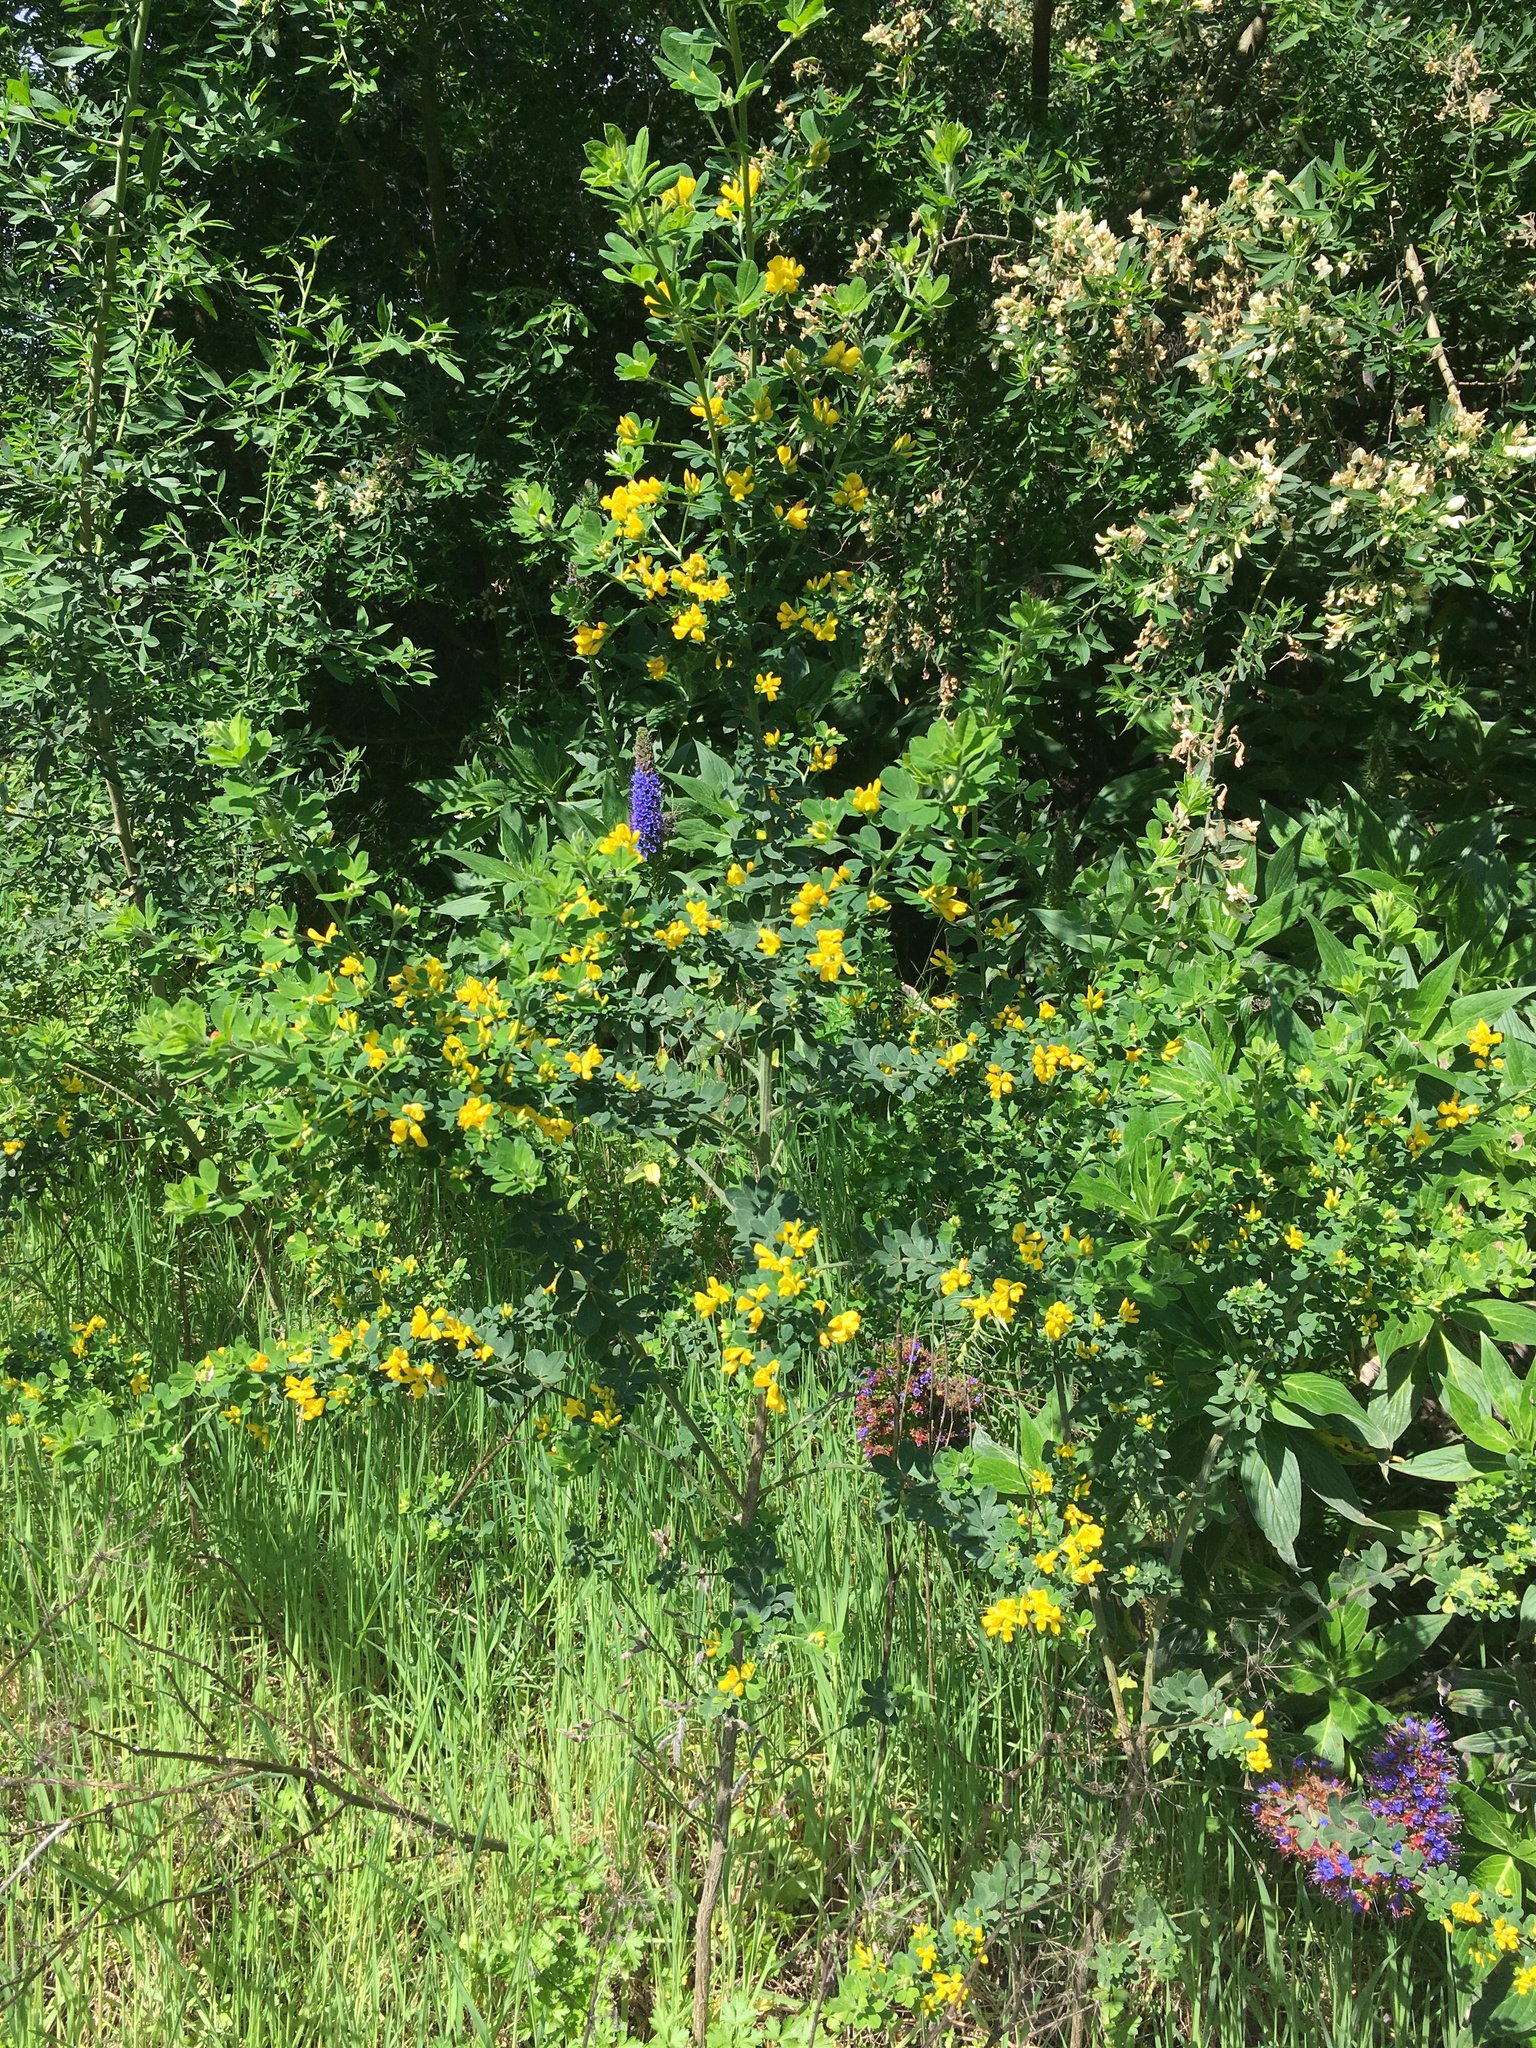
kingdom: Plantae
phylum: Tracheophyta
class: Magnoliopsida
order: Fabales
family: Fabaceae
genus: Genista
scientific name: Genista monspessulana
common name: Montpellier broom
